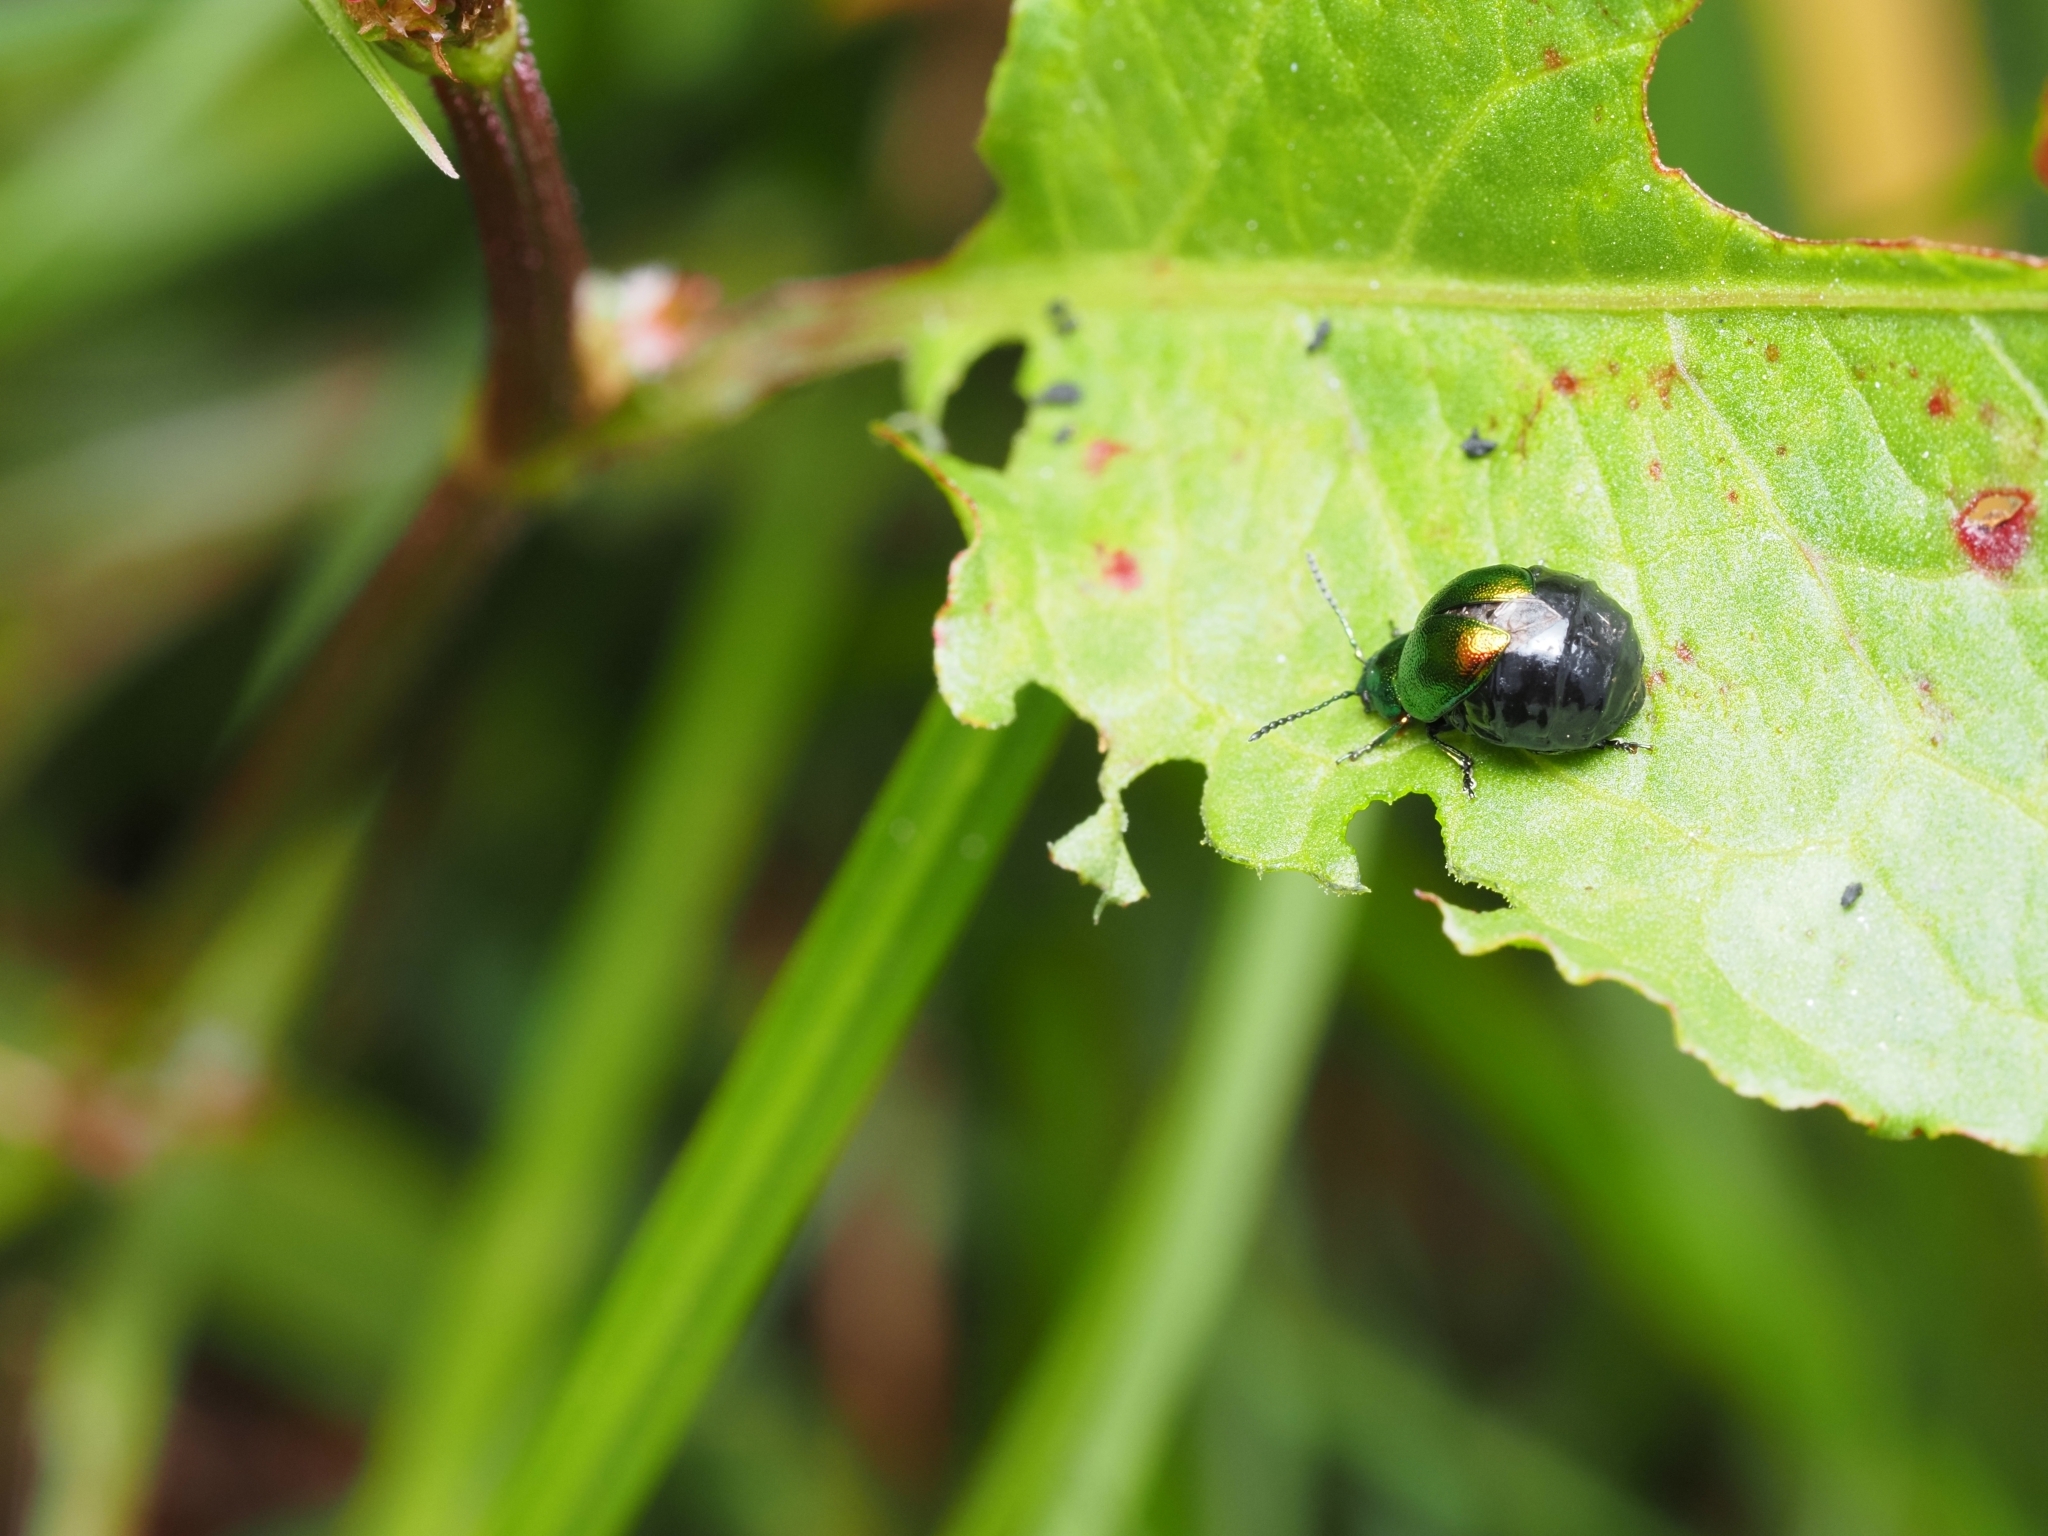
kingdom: Animalia
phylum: Arthropoda
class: Insecta
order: Coleoptera
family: Chrysomelidae
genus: Gastrophysa
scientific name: Gastrophysa viridula
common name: Green dock beetle
